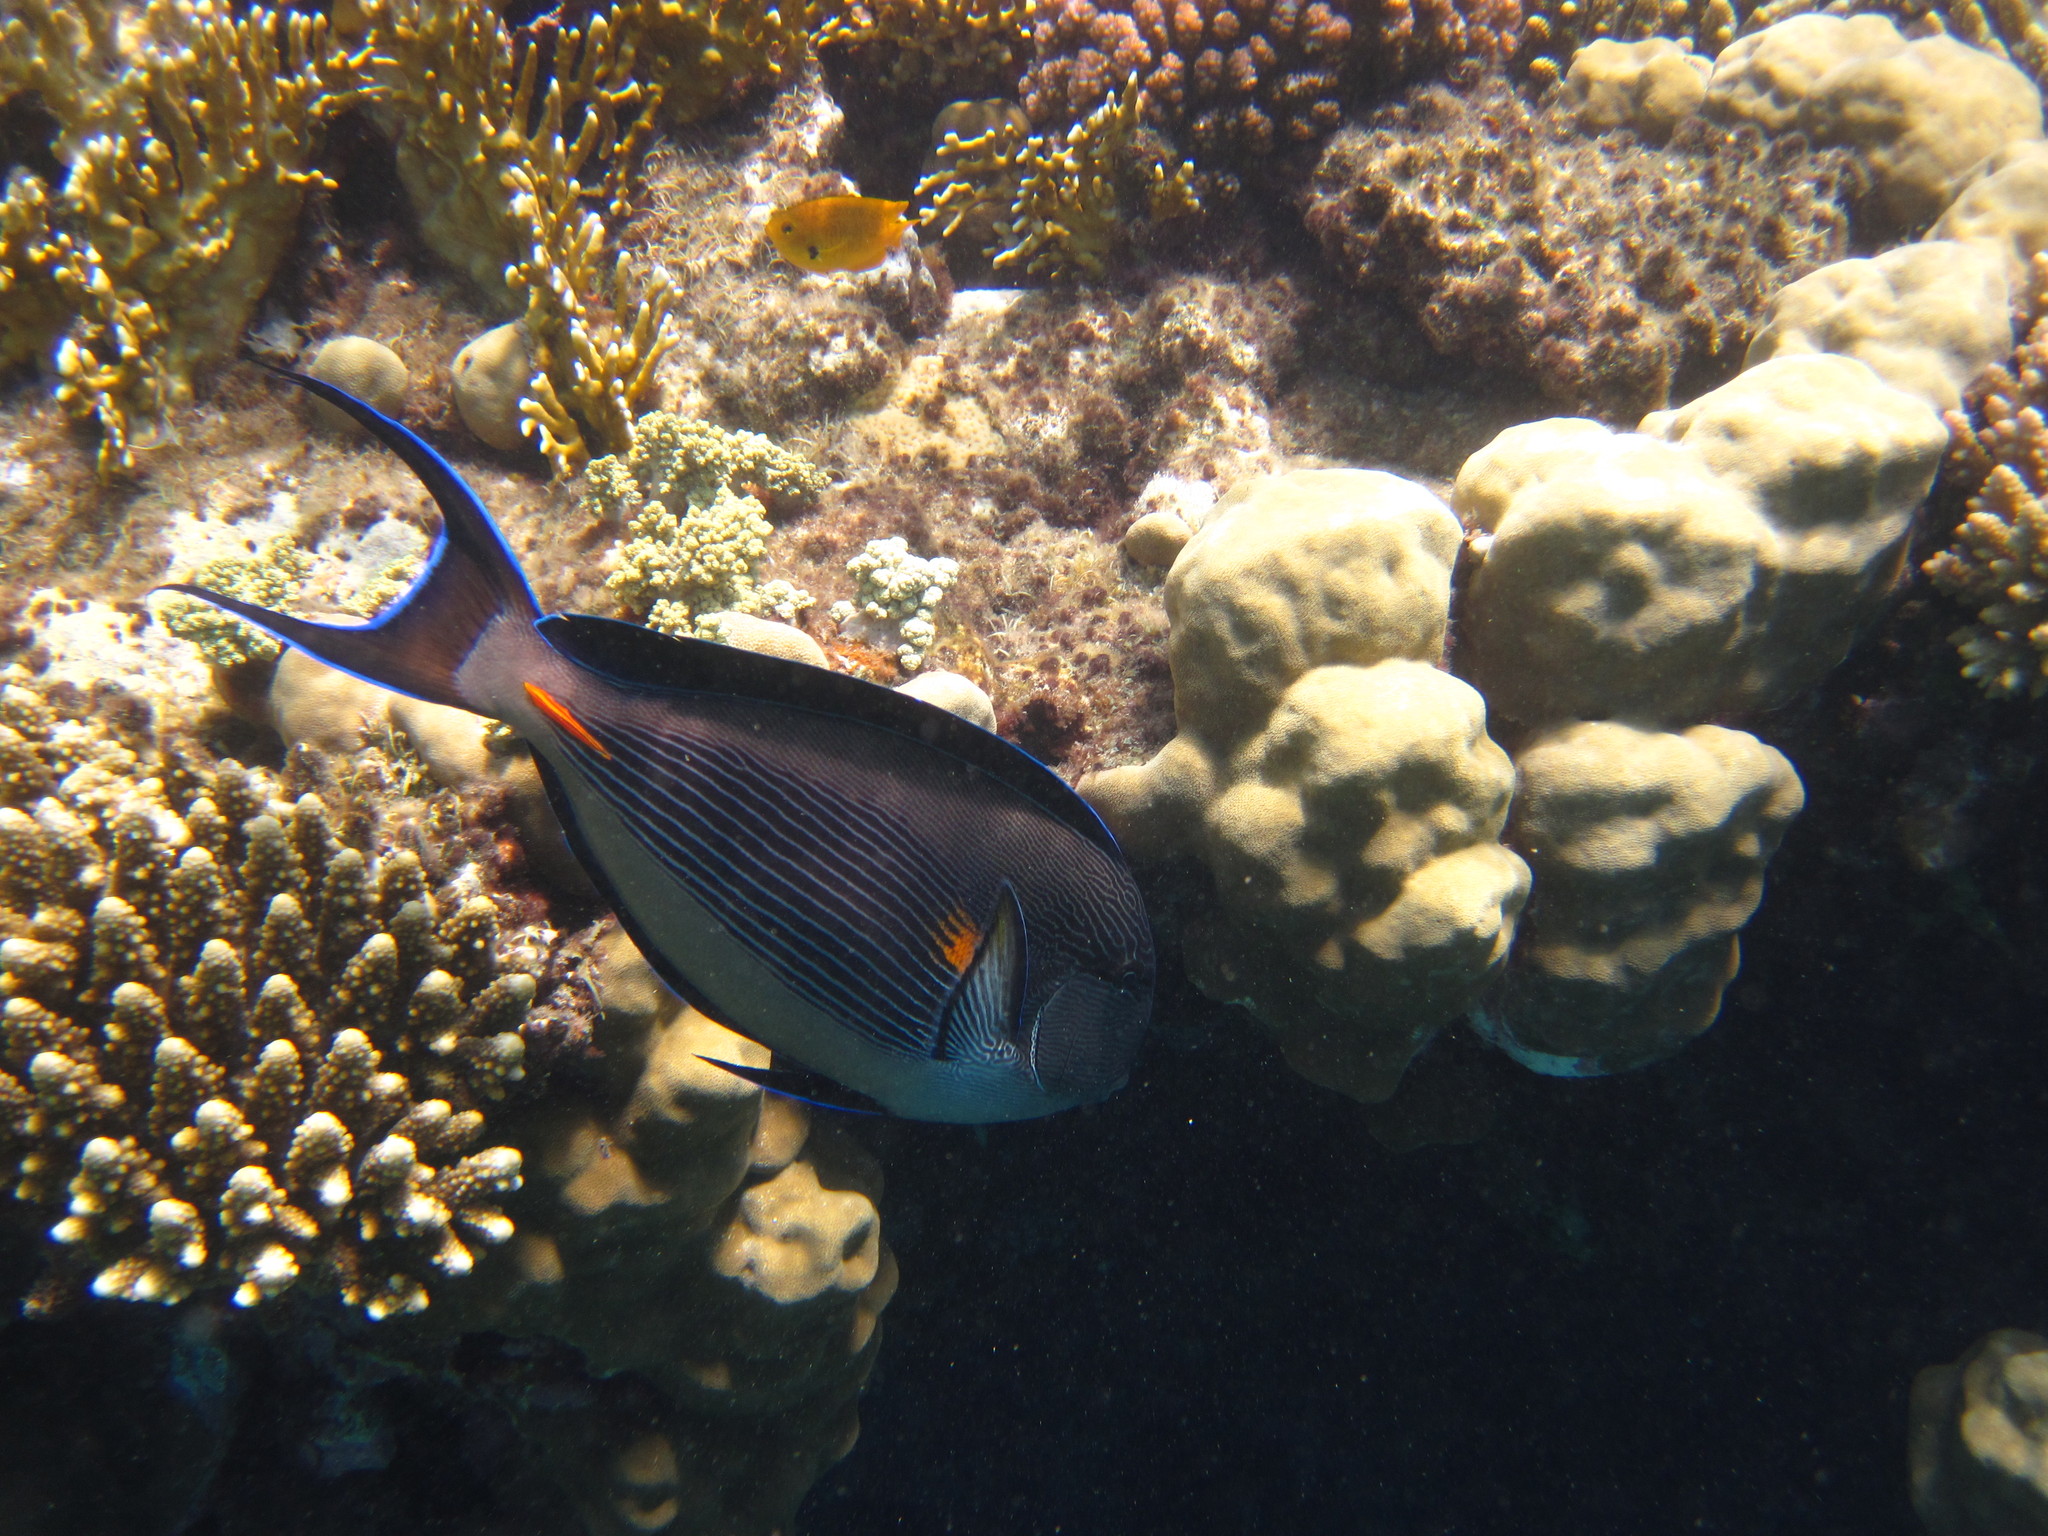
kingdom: Animalia
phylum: Chordata
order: Perciformes
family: Acanthuridae
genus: Acanthurus
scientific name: Acanthurus sohal
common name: Red sea surgeonfish
